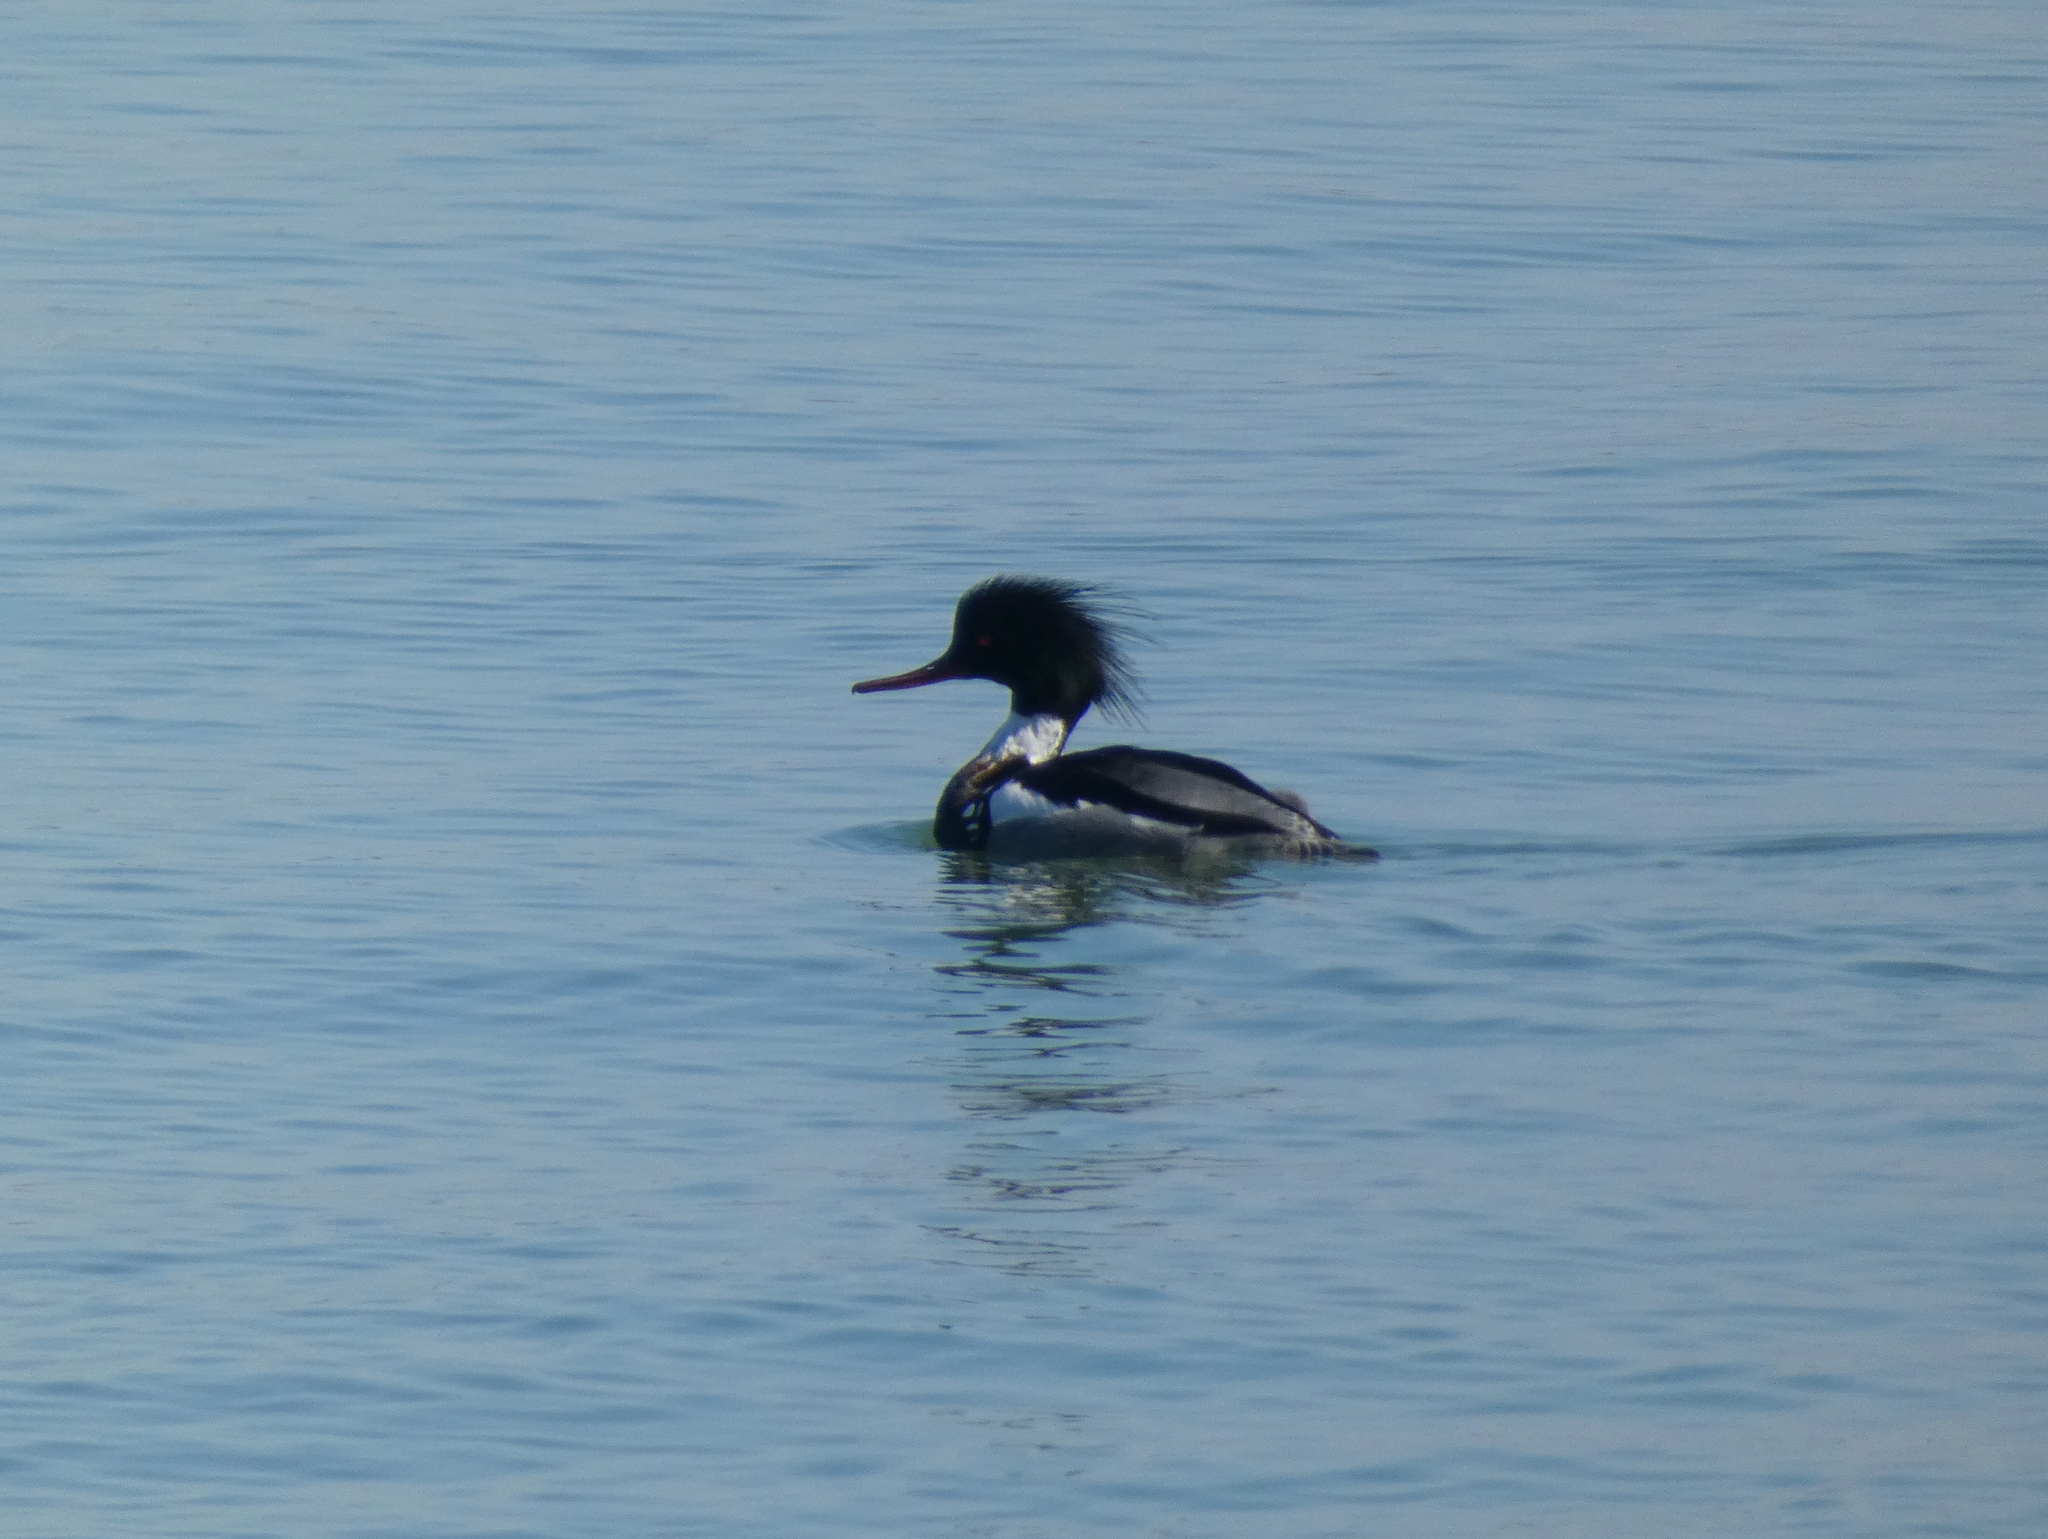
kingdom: Animalia
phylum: Chordata
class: Aves
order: Anseriformes
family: Anatidae
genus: Mergus
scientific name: Mergus serrator
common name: Red-breasted merganser
